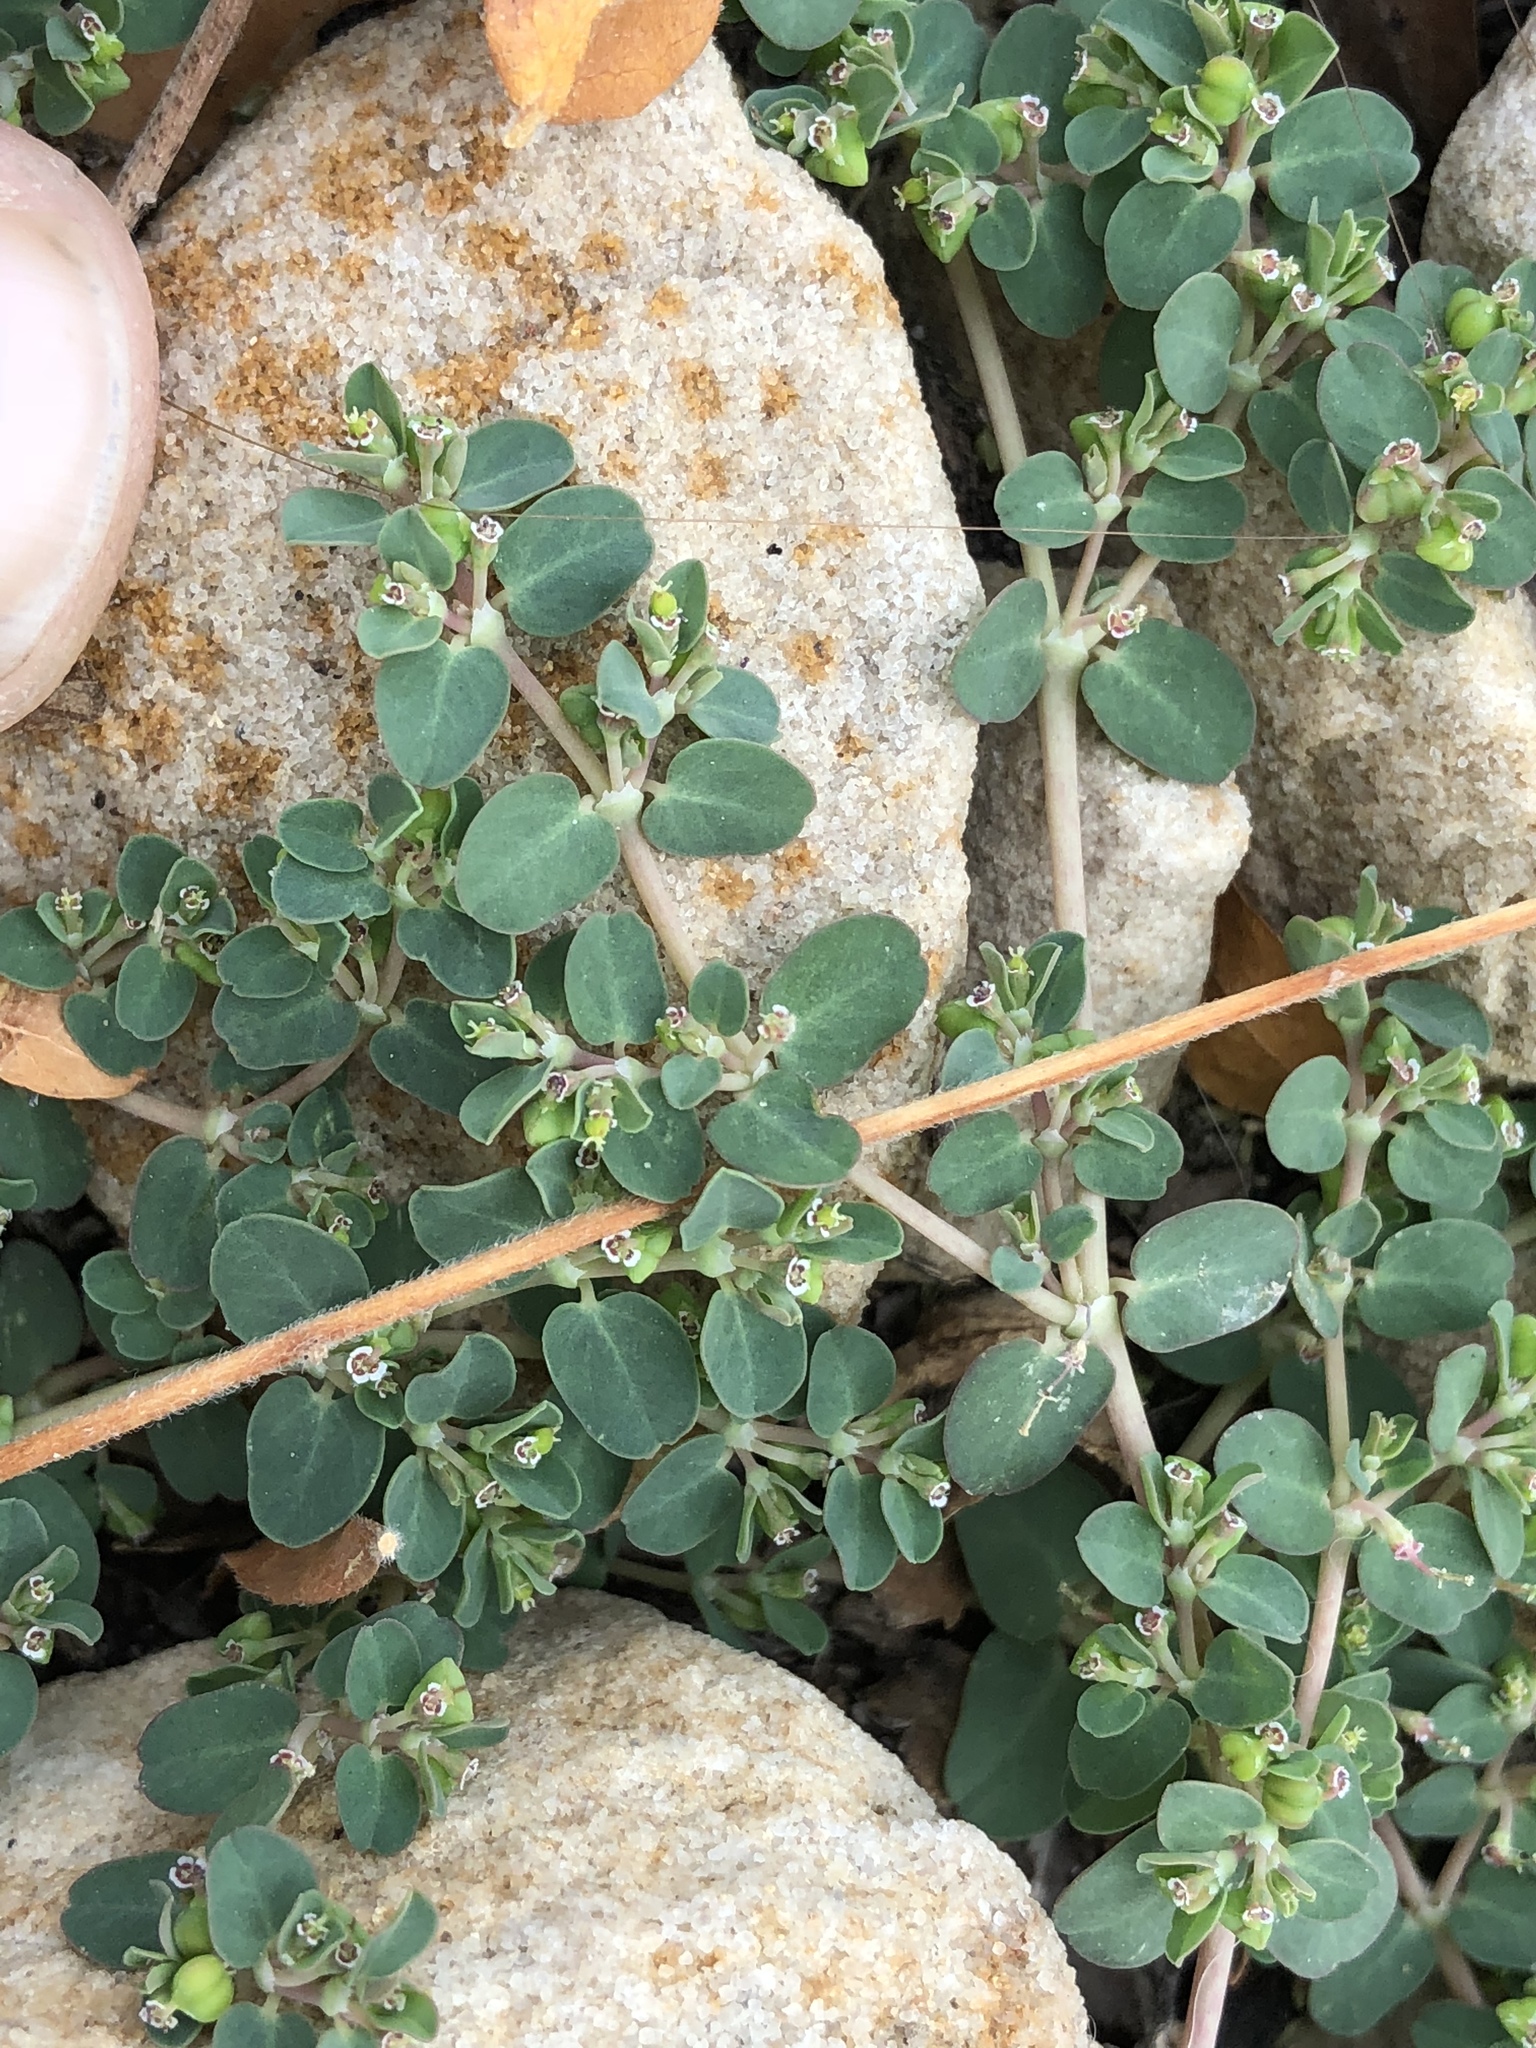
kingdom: Plantae
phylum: Tracheophyta
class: Magnoliopsida
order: Malpighiales
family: Euphorbiaceae
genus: Euphorbia
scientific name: Euphorbia serpens
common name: Matted sandmat
